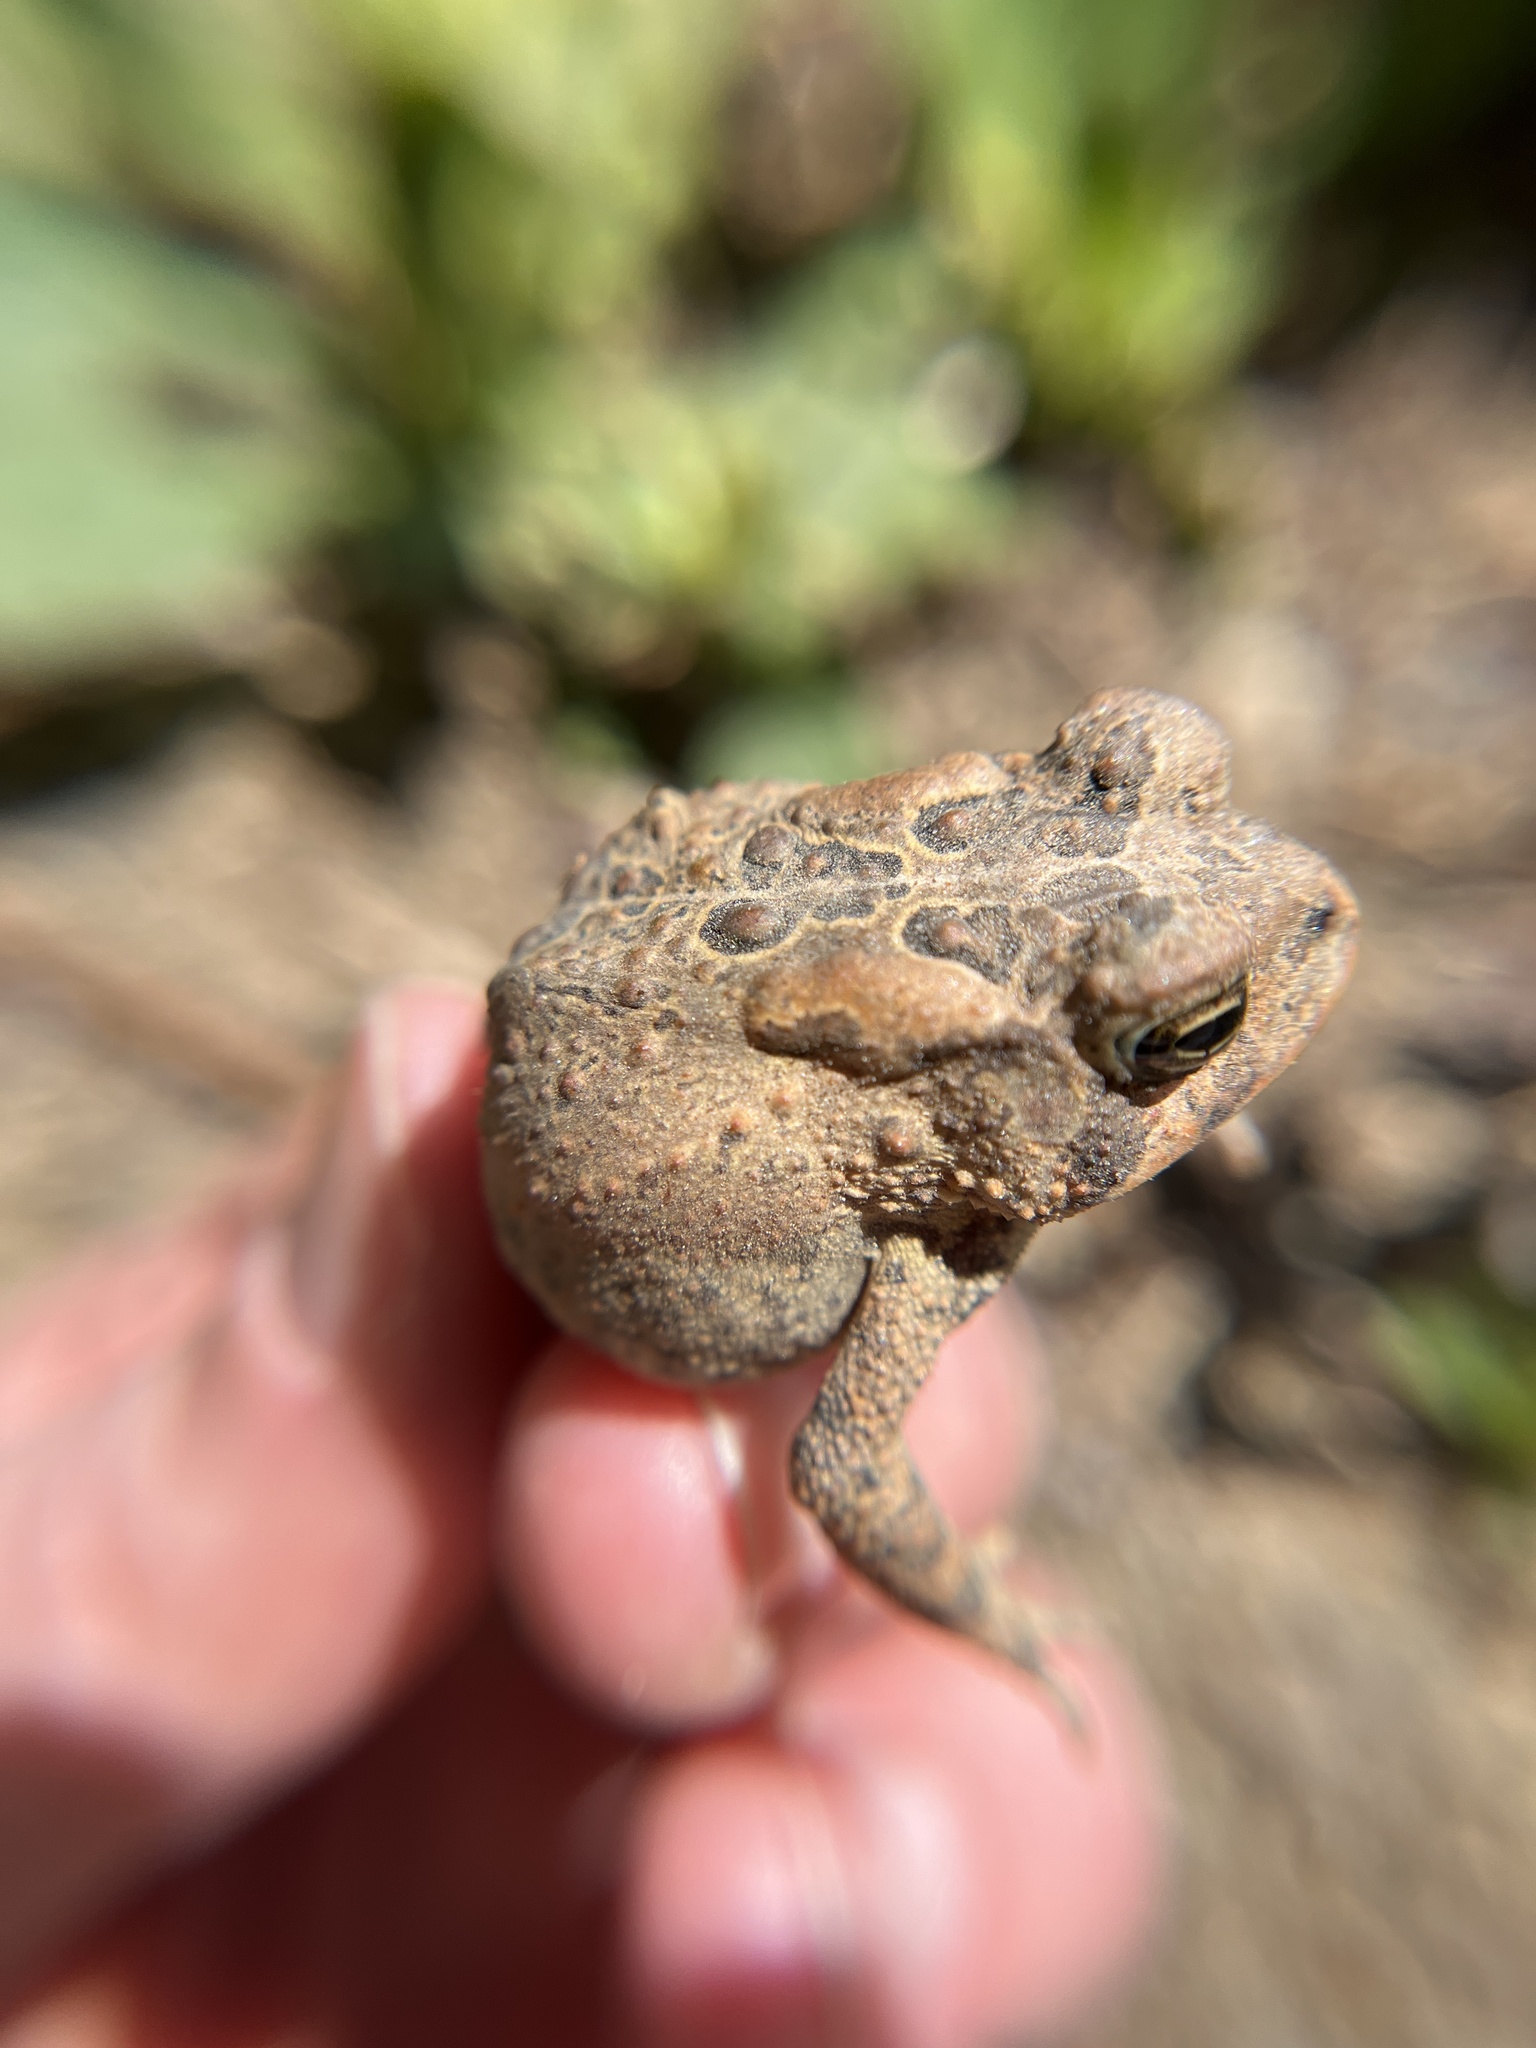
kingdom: Animalia
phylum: Chordata
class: Amphibia
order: Anura
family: Bufonidae
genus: Anaxyrus
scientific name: Anaxyrus americanus
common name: American toad
